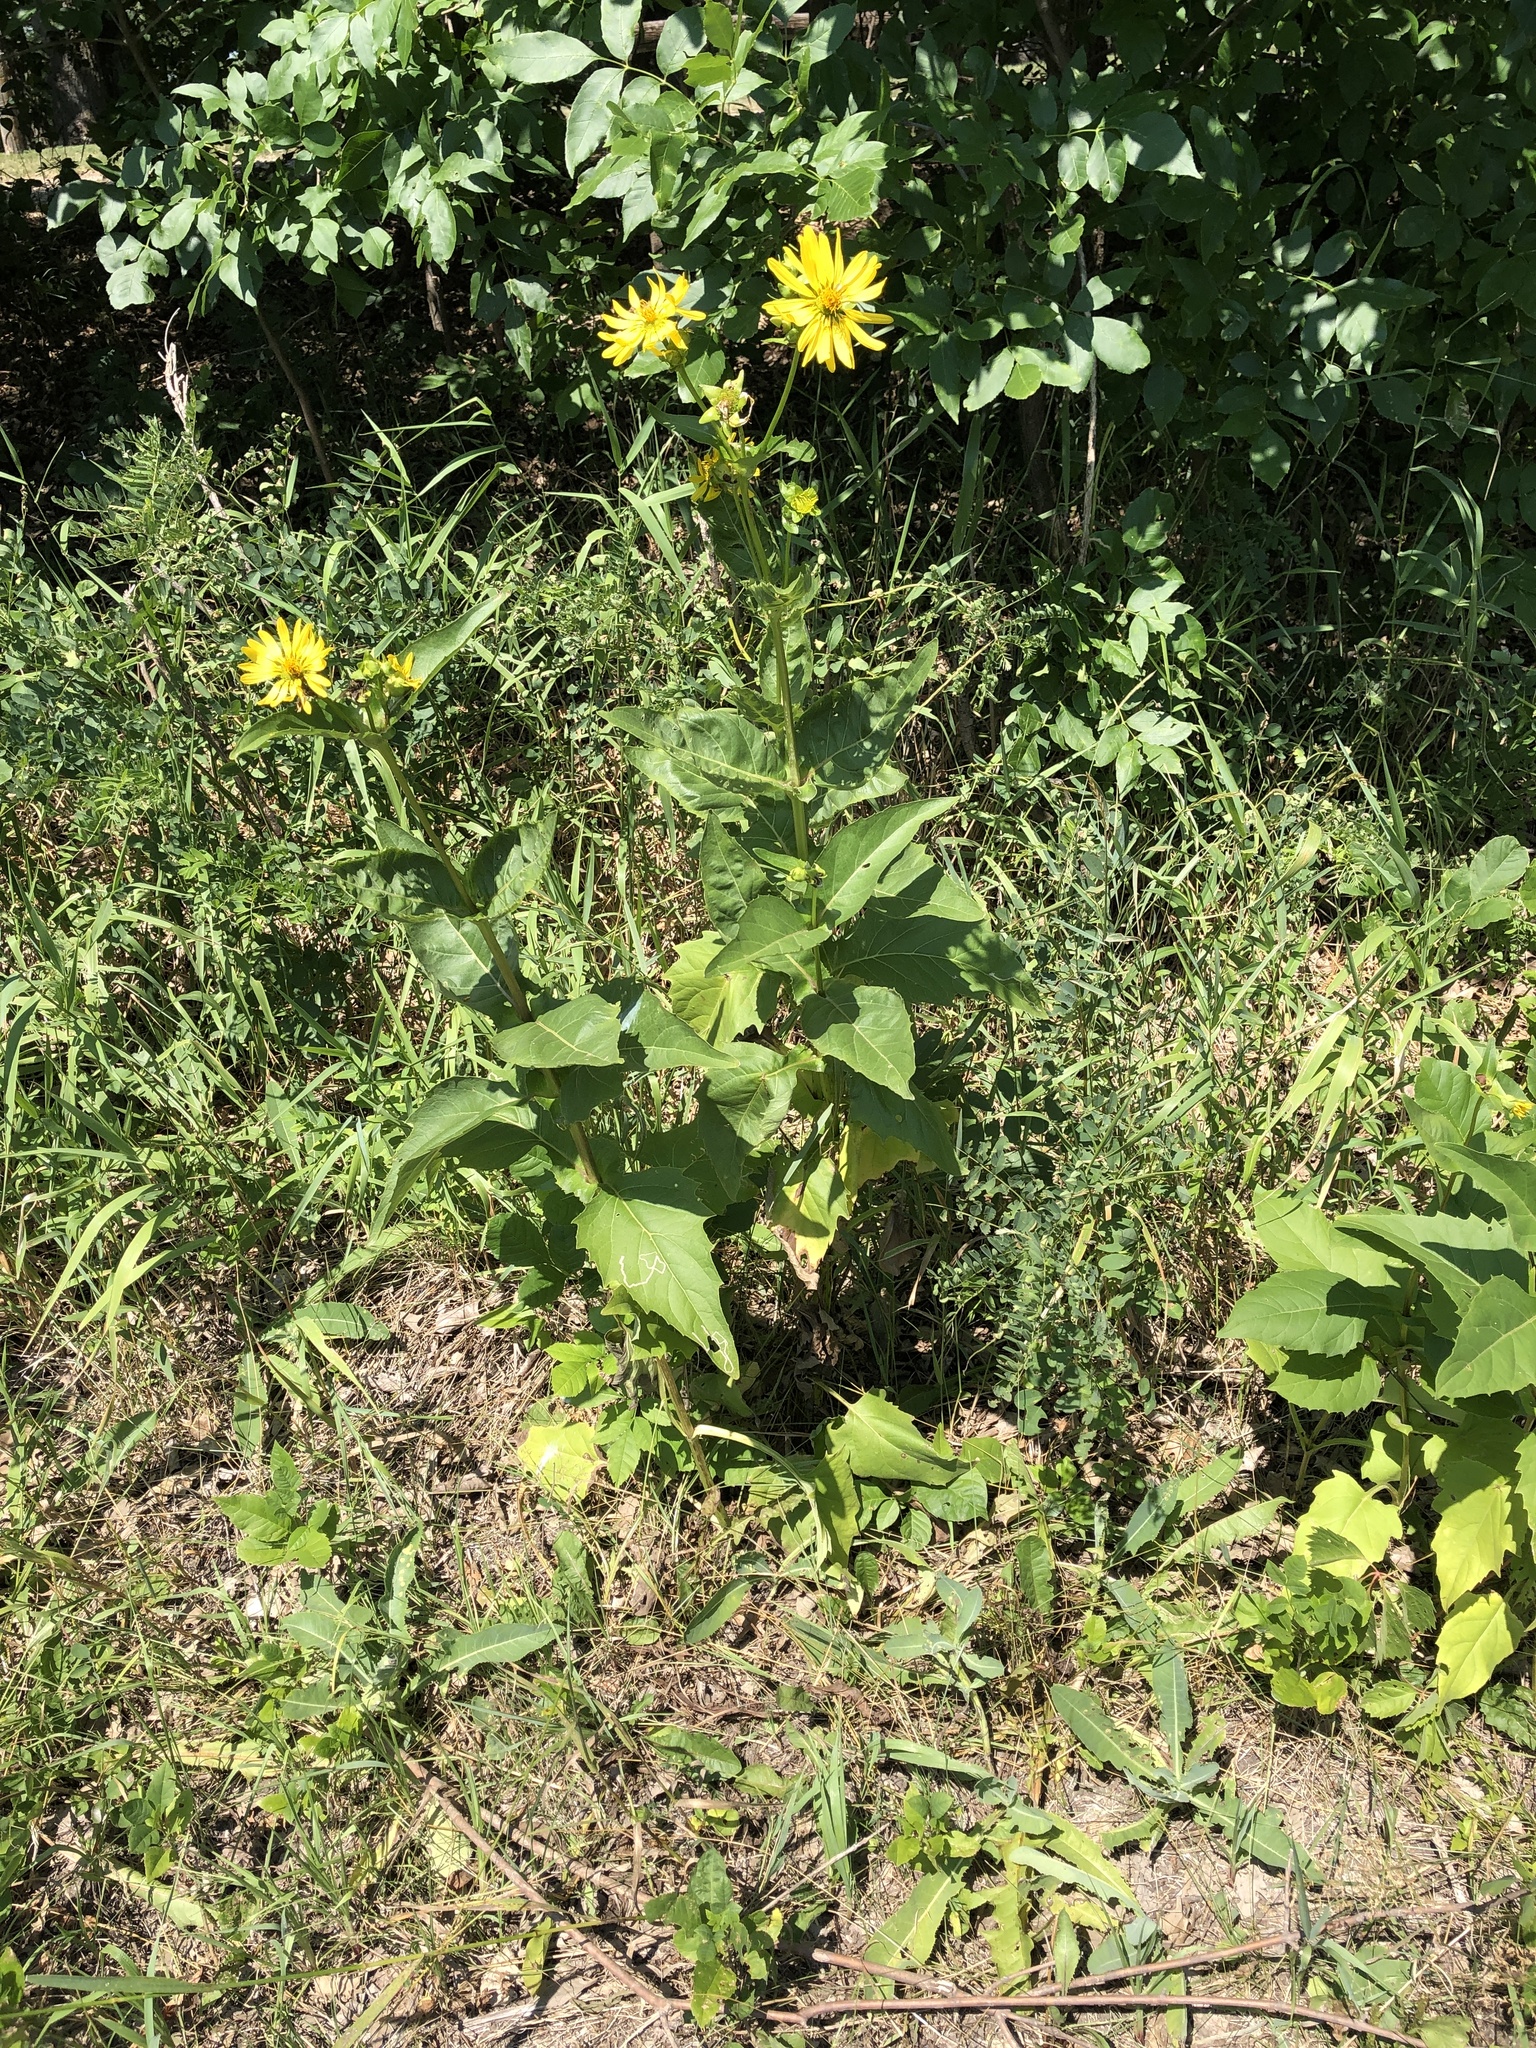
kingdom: Plantae
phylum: Tracheophyta
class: Magnoliopsida
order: Asterales
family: Asteraceae
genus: Silphium
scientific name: Silphium perfoliatum
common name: Cup-plant
